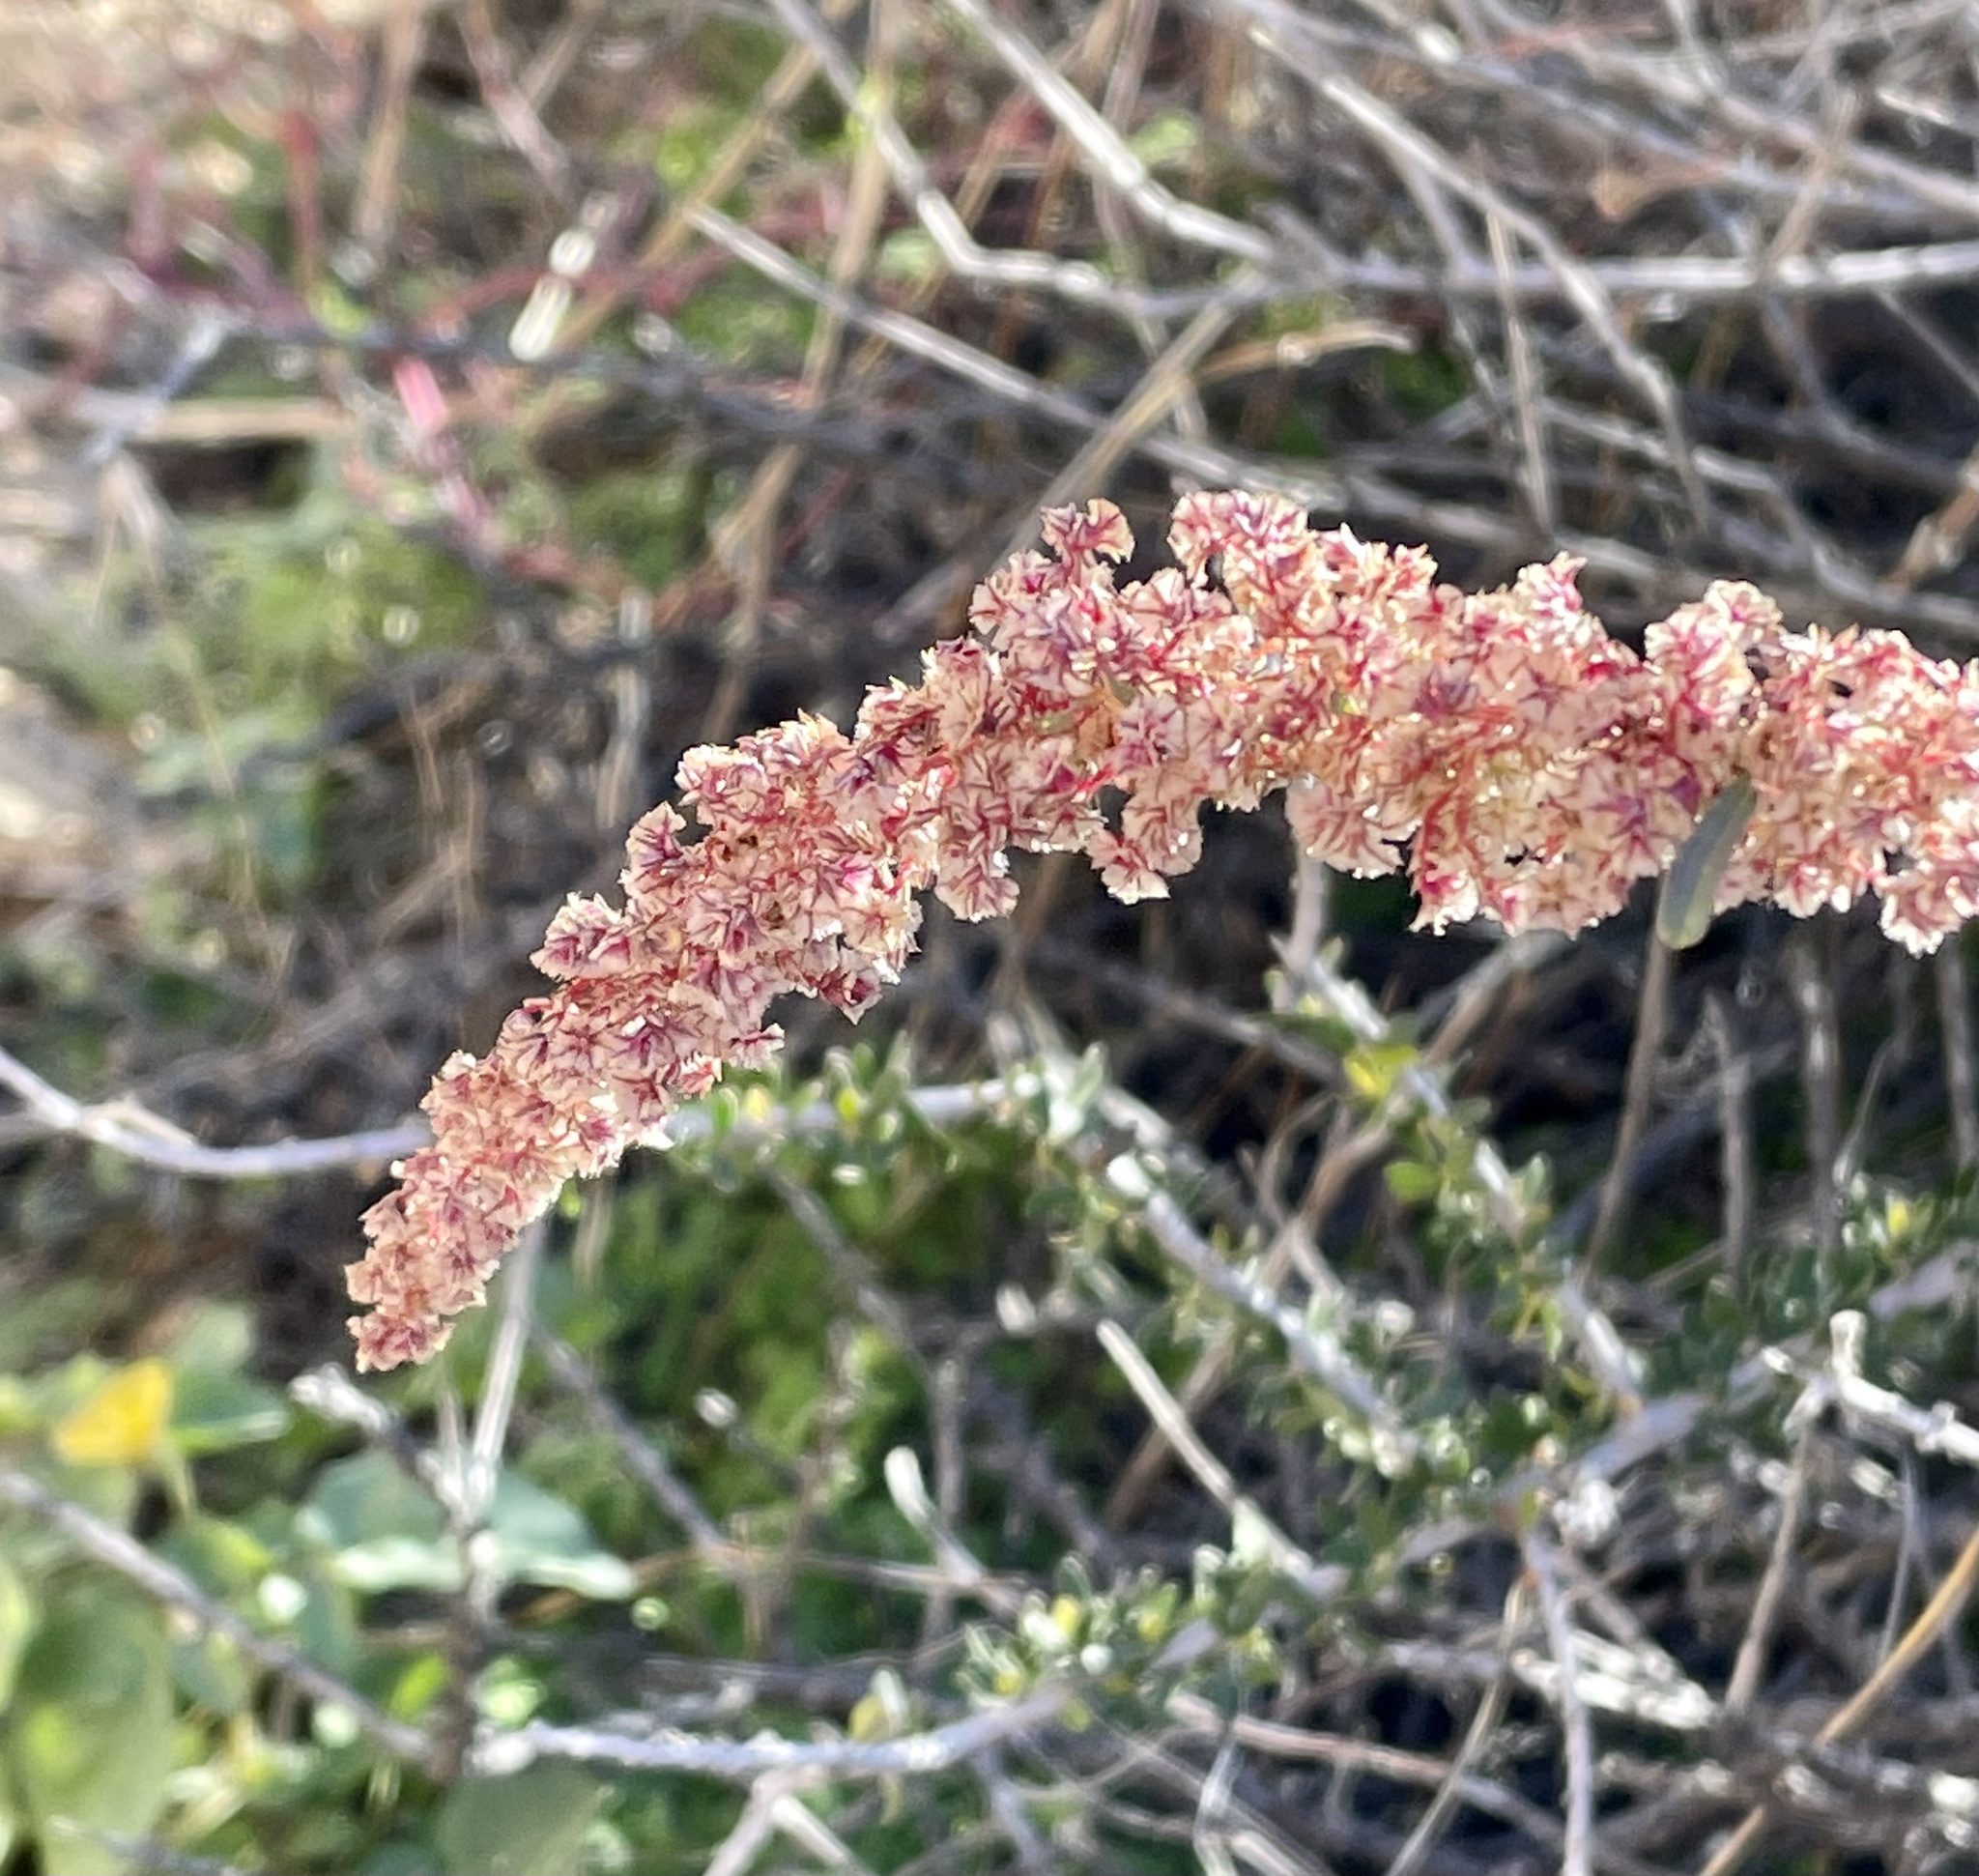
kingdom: Plantae
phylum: Tracheophyta
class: Magnoliopsida
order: Caryophyllales
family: Amaranthaceae
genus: Amaranthus
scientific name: Amaranthus fimbriatus
